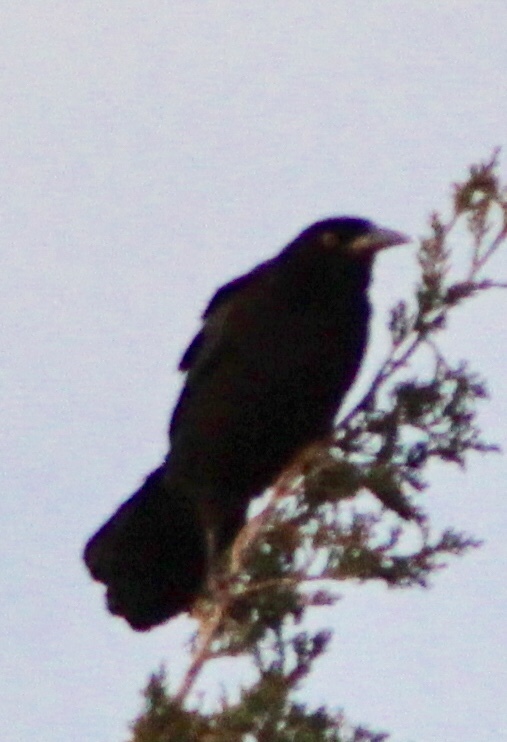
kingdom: Animalia
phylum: Chordata
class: Aves
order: Passeriformes
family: Icteridae
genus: Quiscalus
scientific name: Quiscalus mexicanus
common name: Great-tailed grackle
